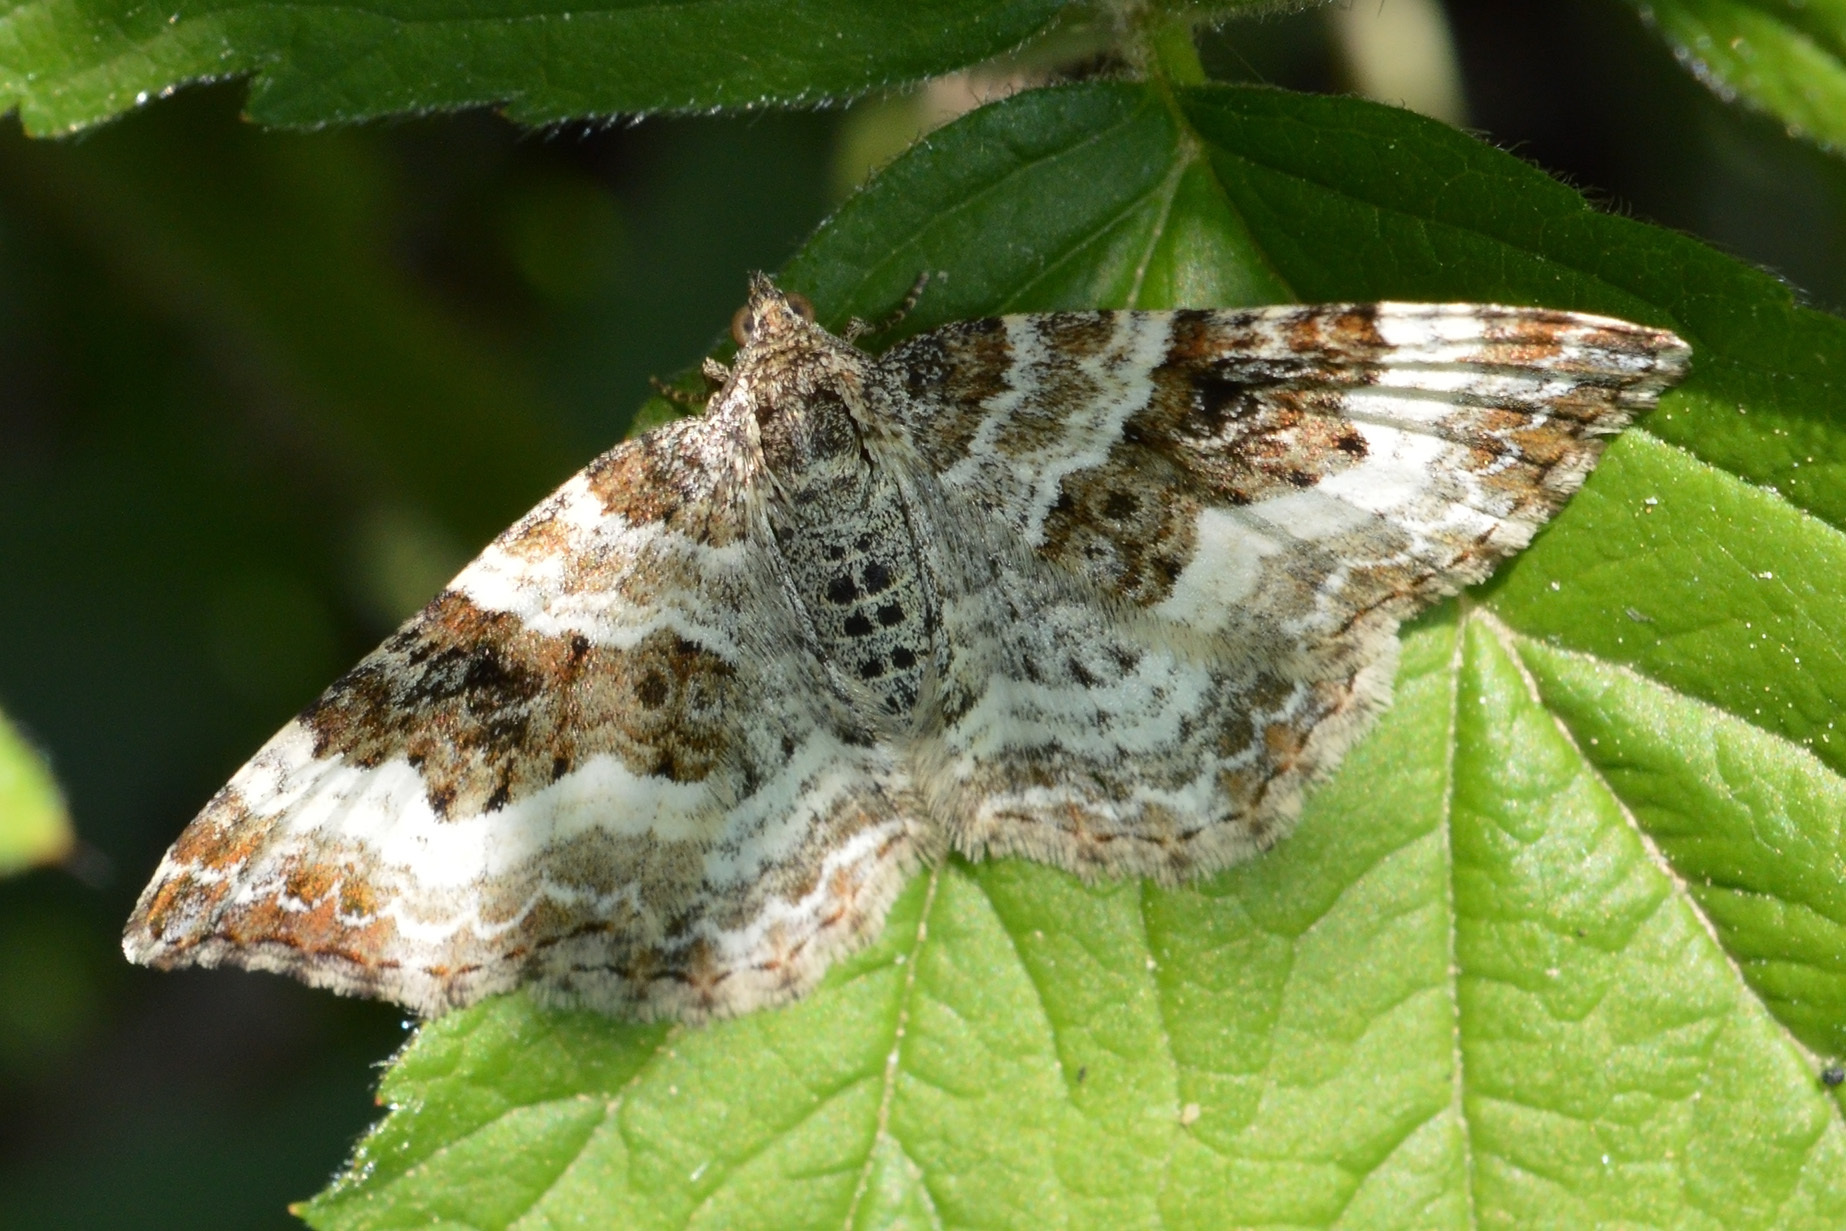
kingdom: Animalia
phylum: Arthropoda
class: Insecta
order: Lepidoptera
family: Geometridae
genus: Epirrhoe
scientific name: Epirrhoe alternata
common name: Common carpet
